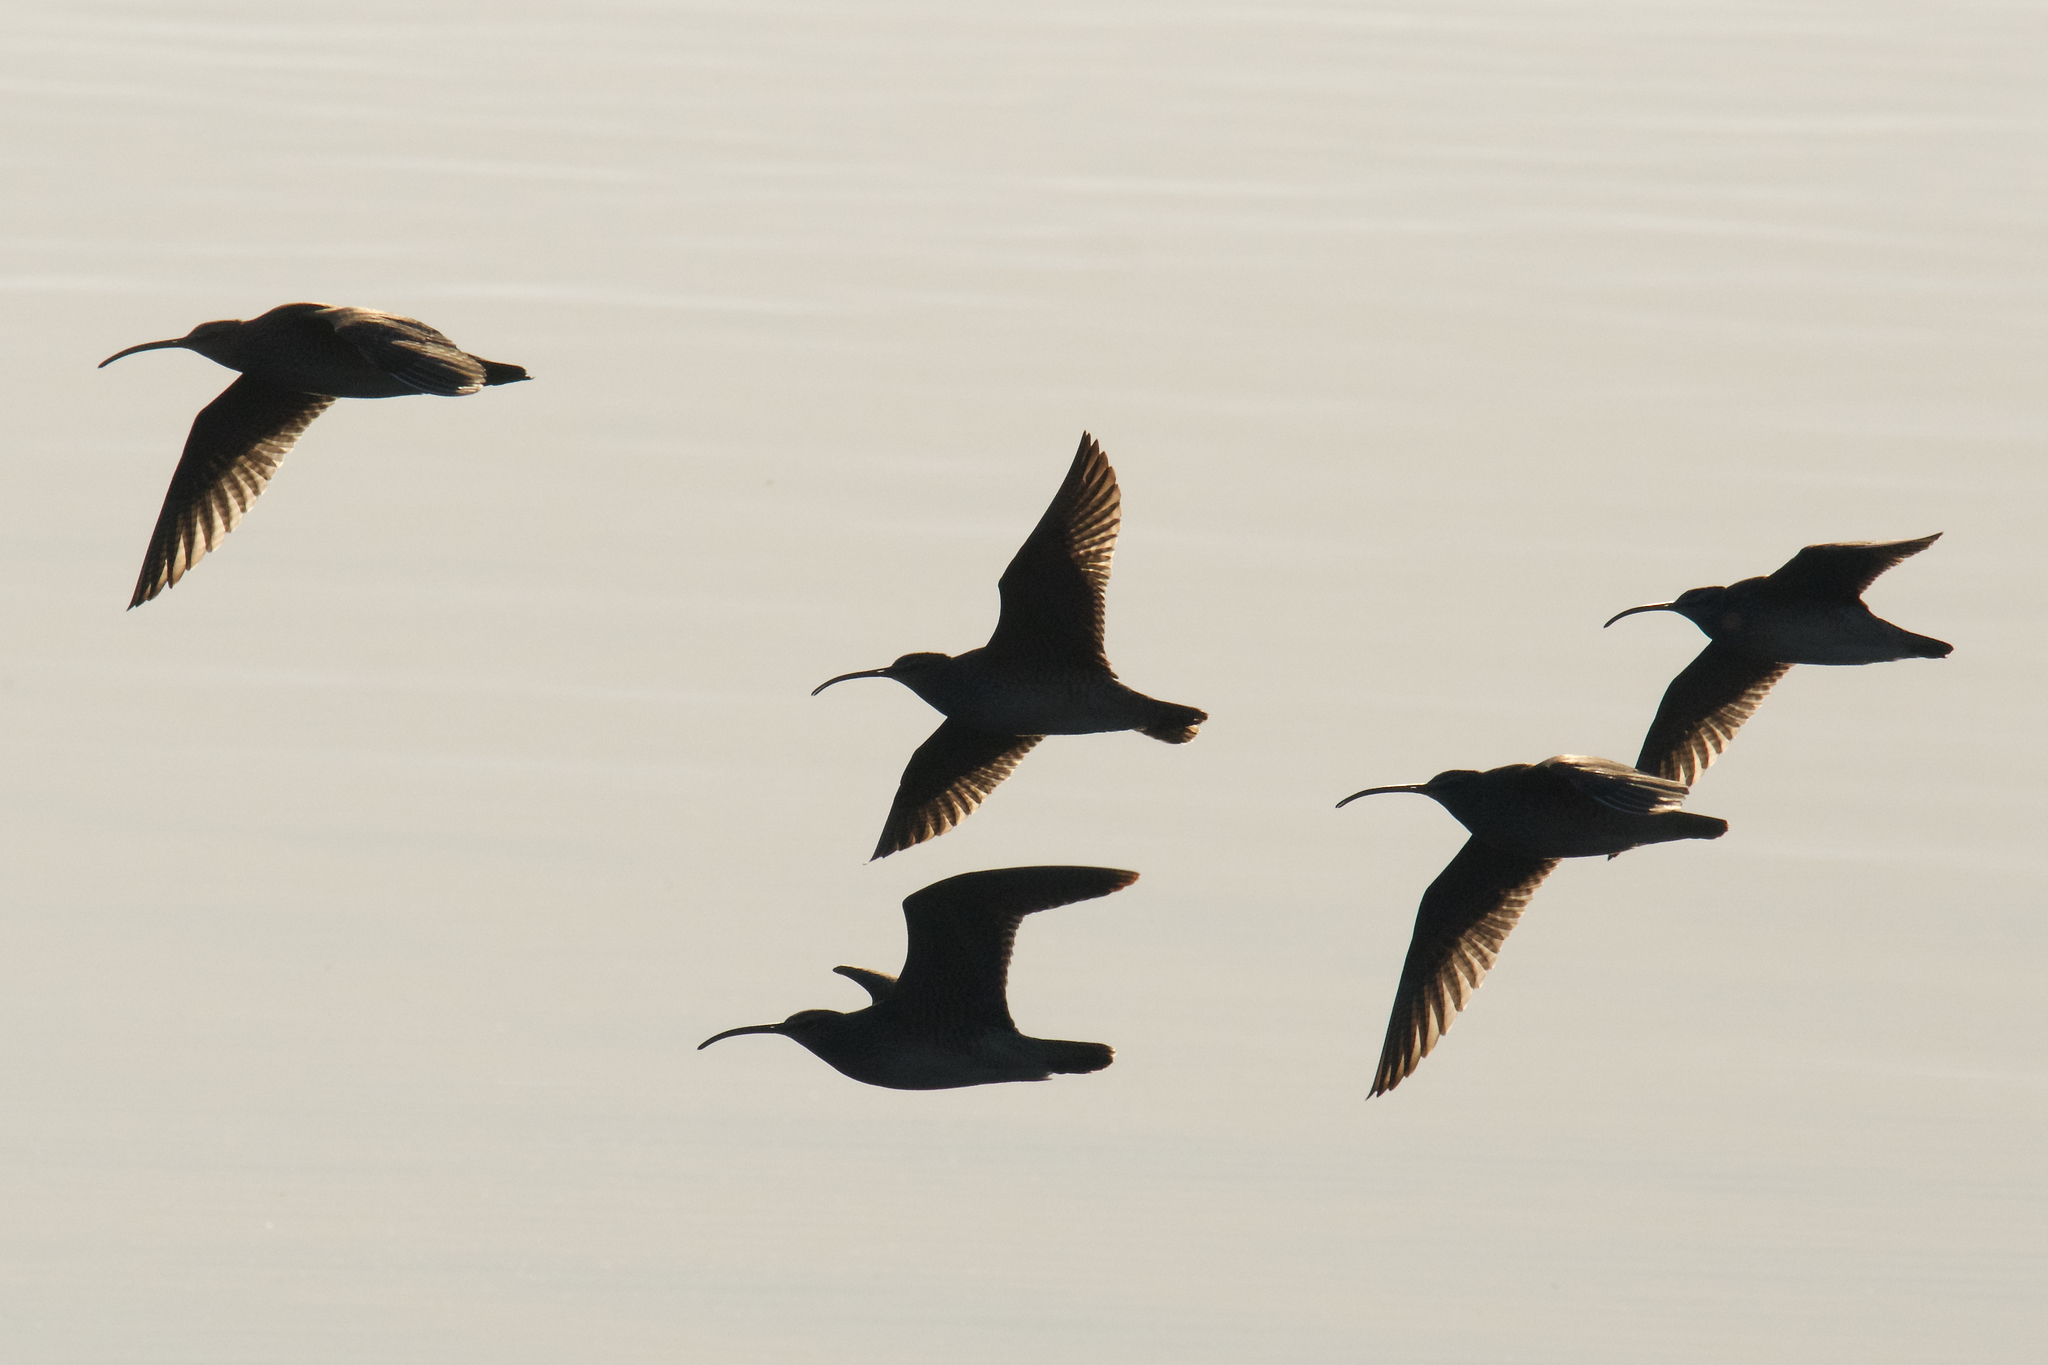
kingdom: Animalia
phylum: Chordata
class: Aves
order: Charadriiformes
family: Scolopacidae
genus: Numenius
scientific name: Numenius phaeopus
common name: Whimbrel
